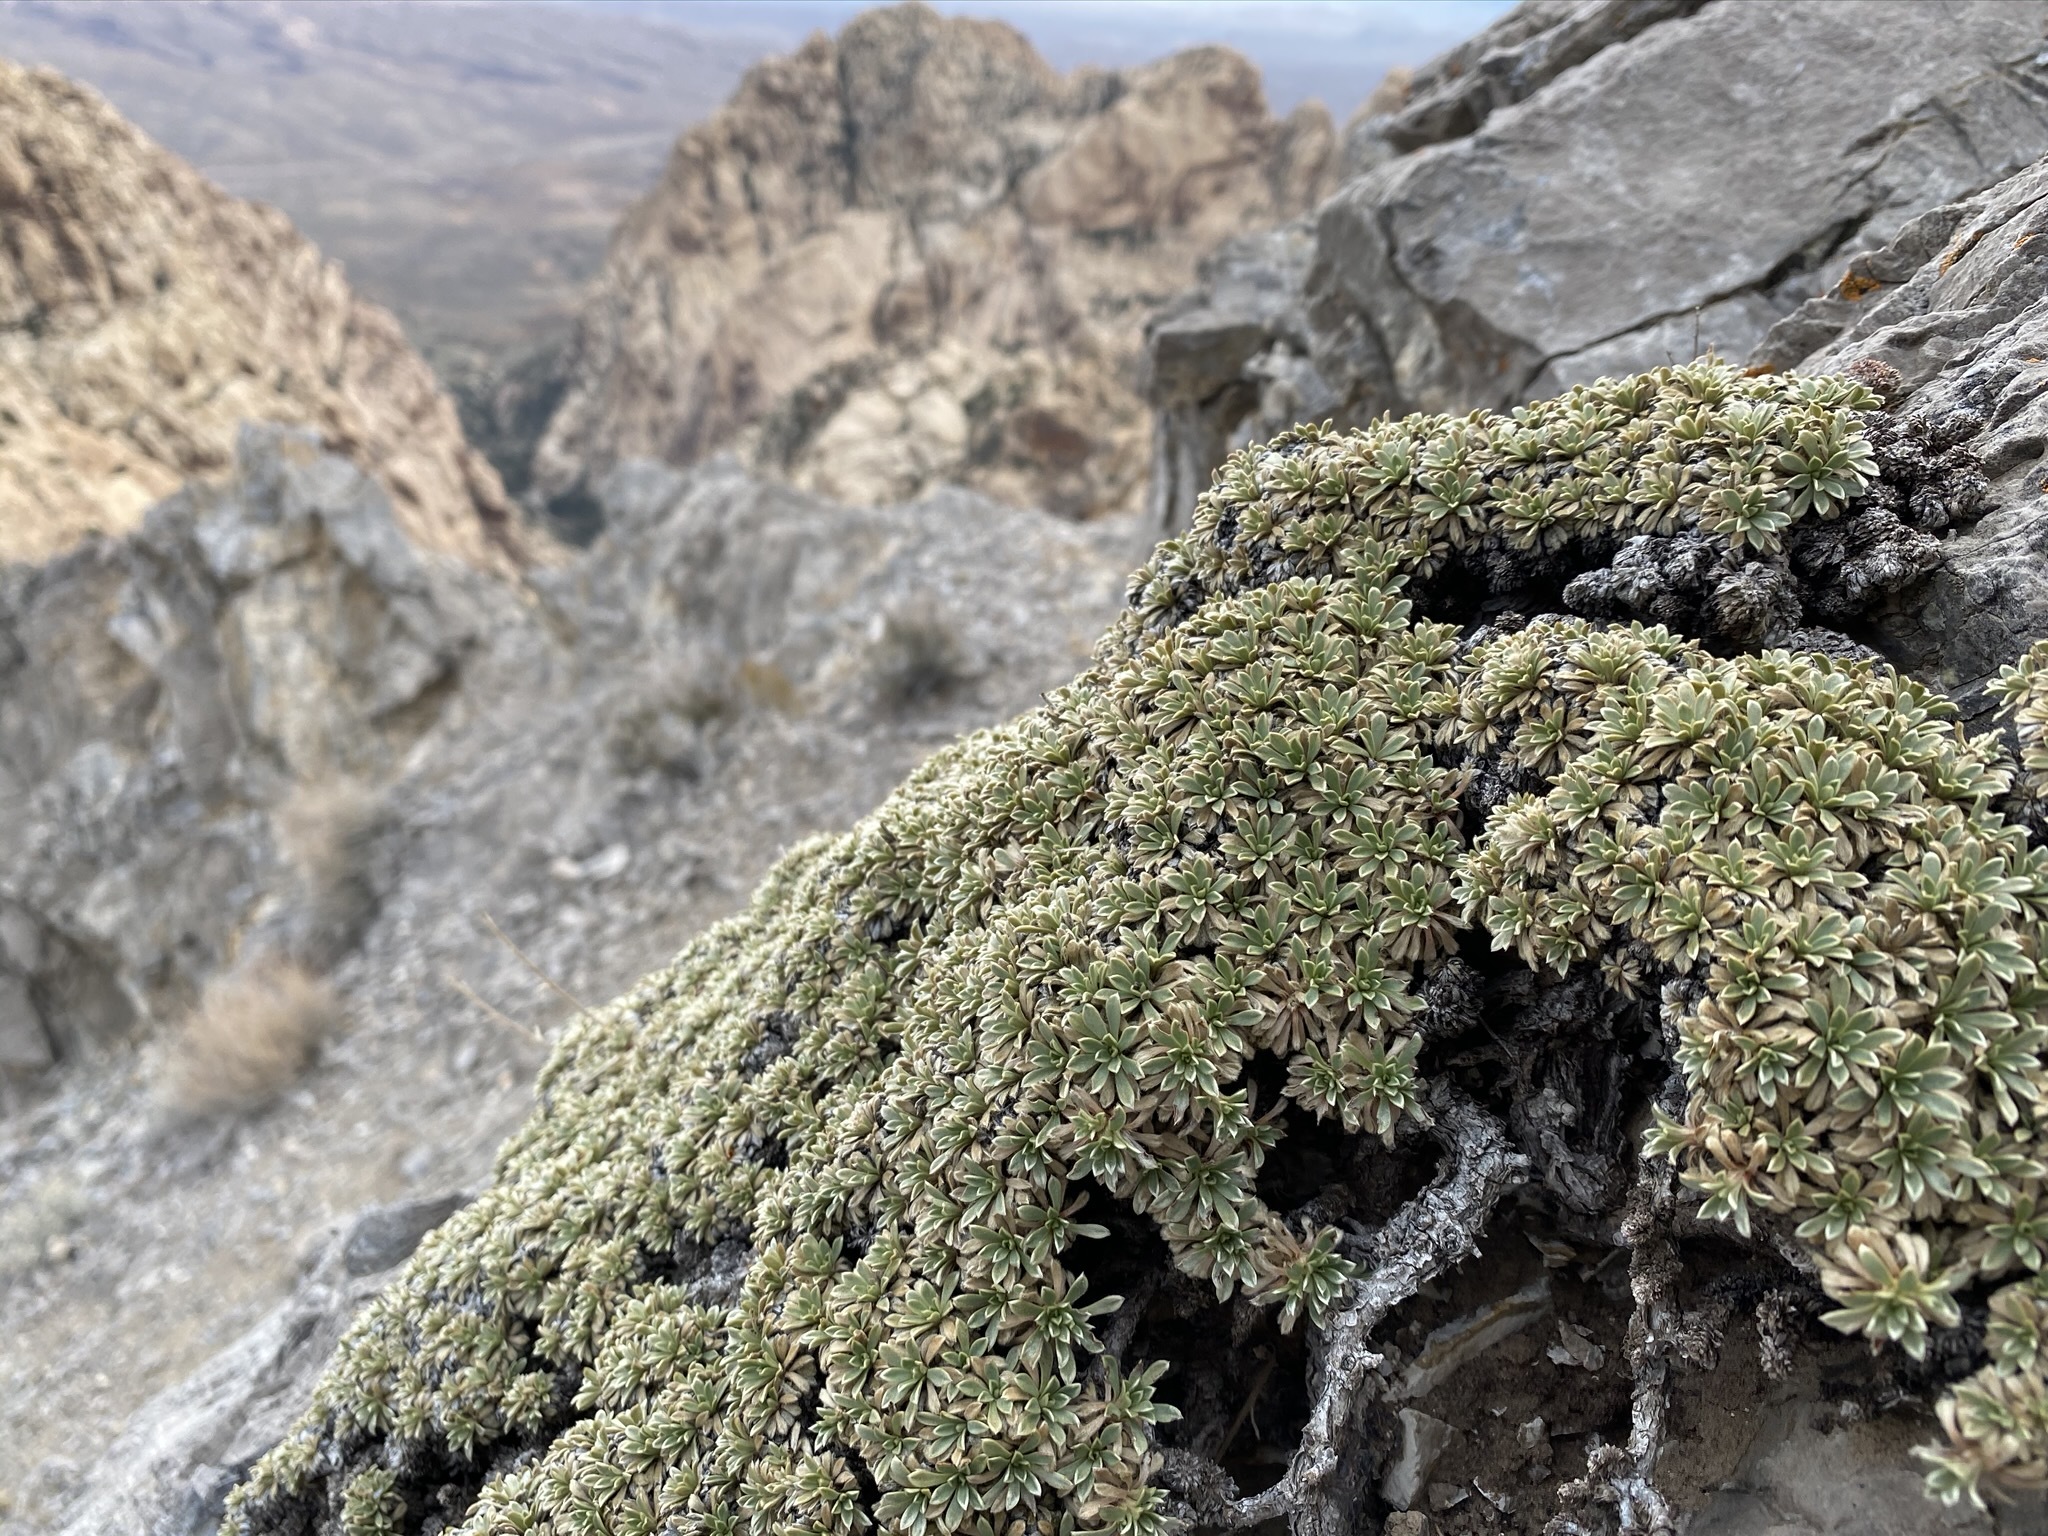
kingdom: Plantae
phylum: Tracheophyta
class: Magnoliopsida
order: Rosales
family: Rosaceae
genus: Petrophytum
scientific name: Petrophytum caespitosum
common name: Mat rockspirea
